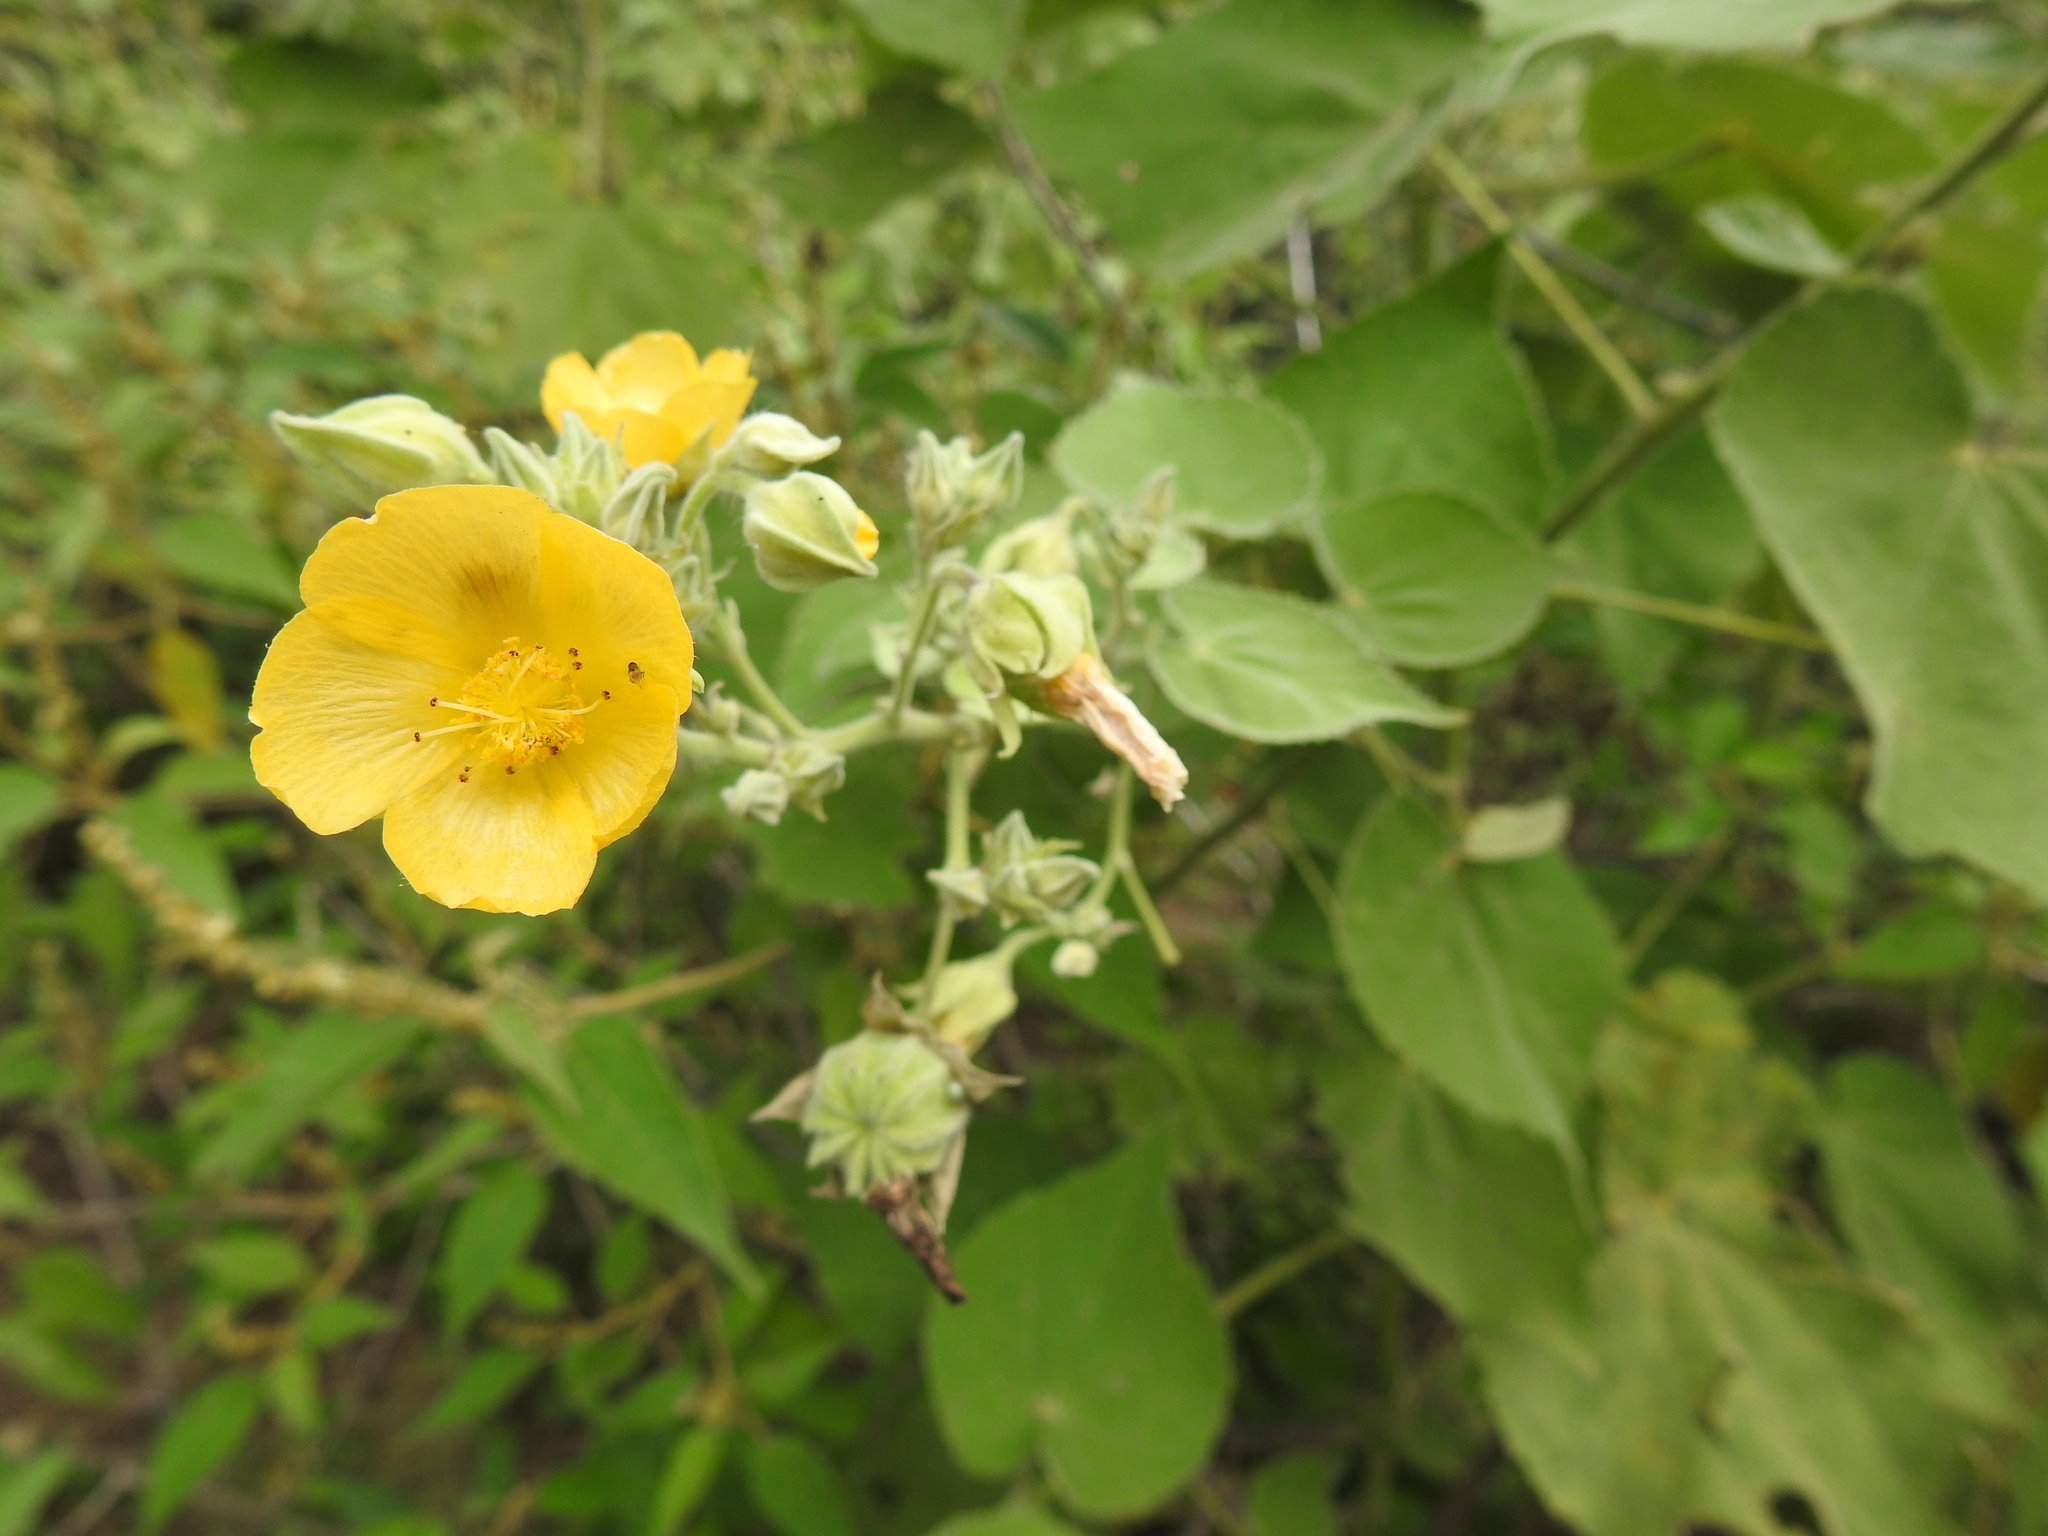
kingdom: Plantae
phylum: Tracheophyta
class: Magnoliopsida
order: Malvales
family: Malvaceae
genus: Abutilon
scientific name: Abutilon grandifolium
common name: Hairy abutilon
